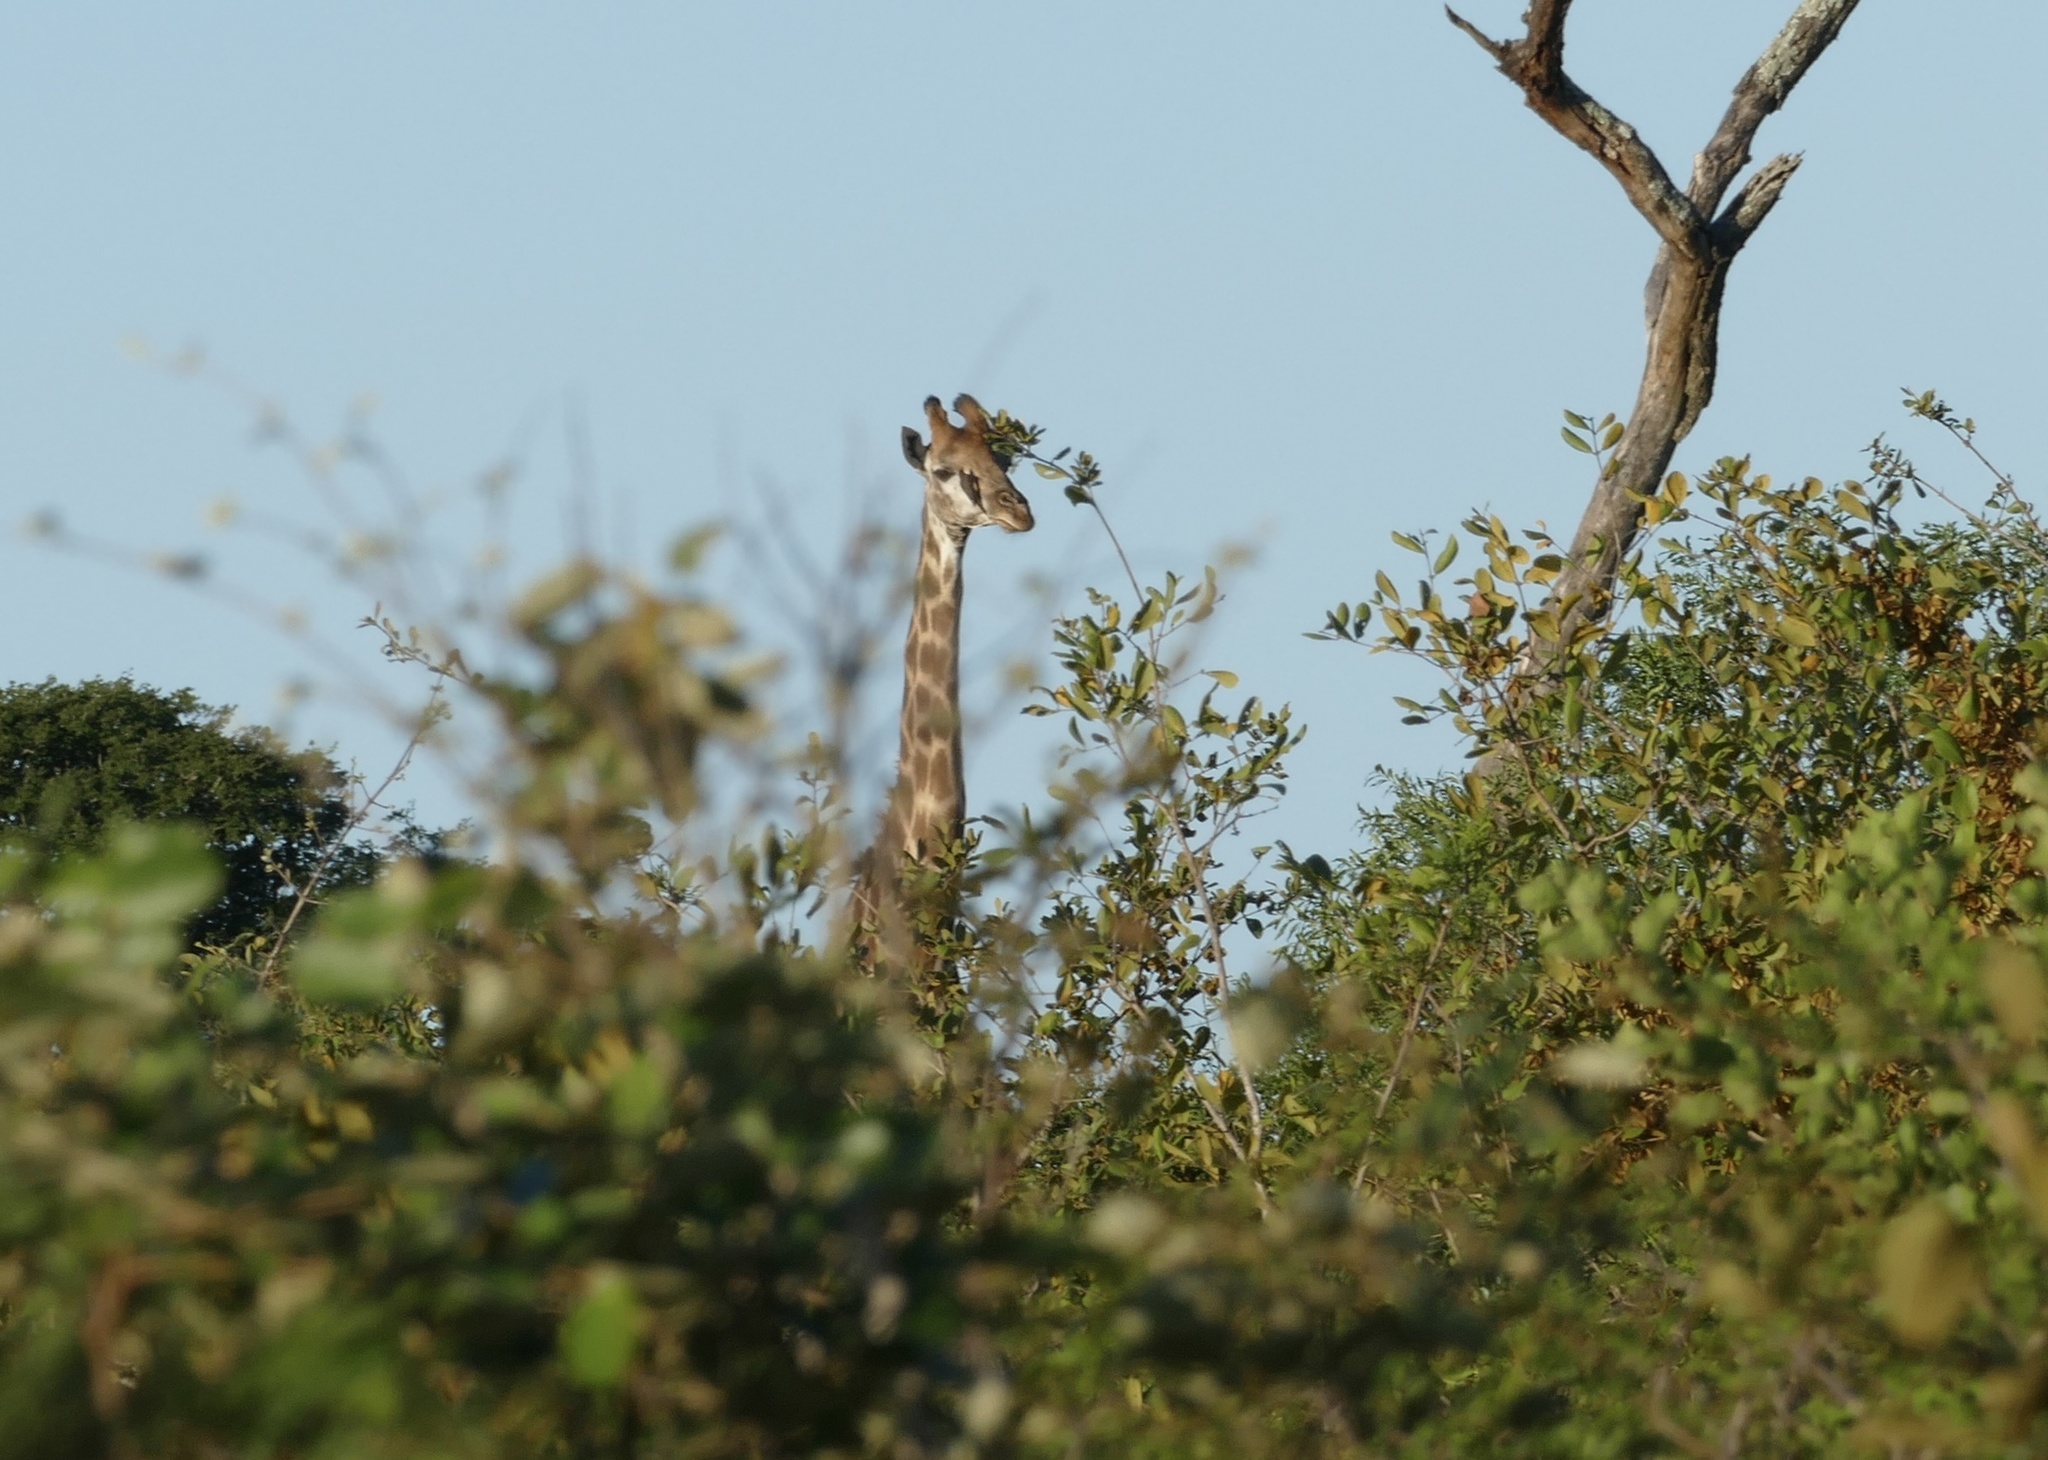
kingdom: Animalia
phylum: Chordata
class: Mammalia
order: Artiodactyla
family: Giraffidae
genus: Giraffa
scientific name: Giraffa giraffa
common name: Southern giraffe
